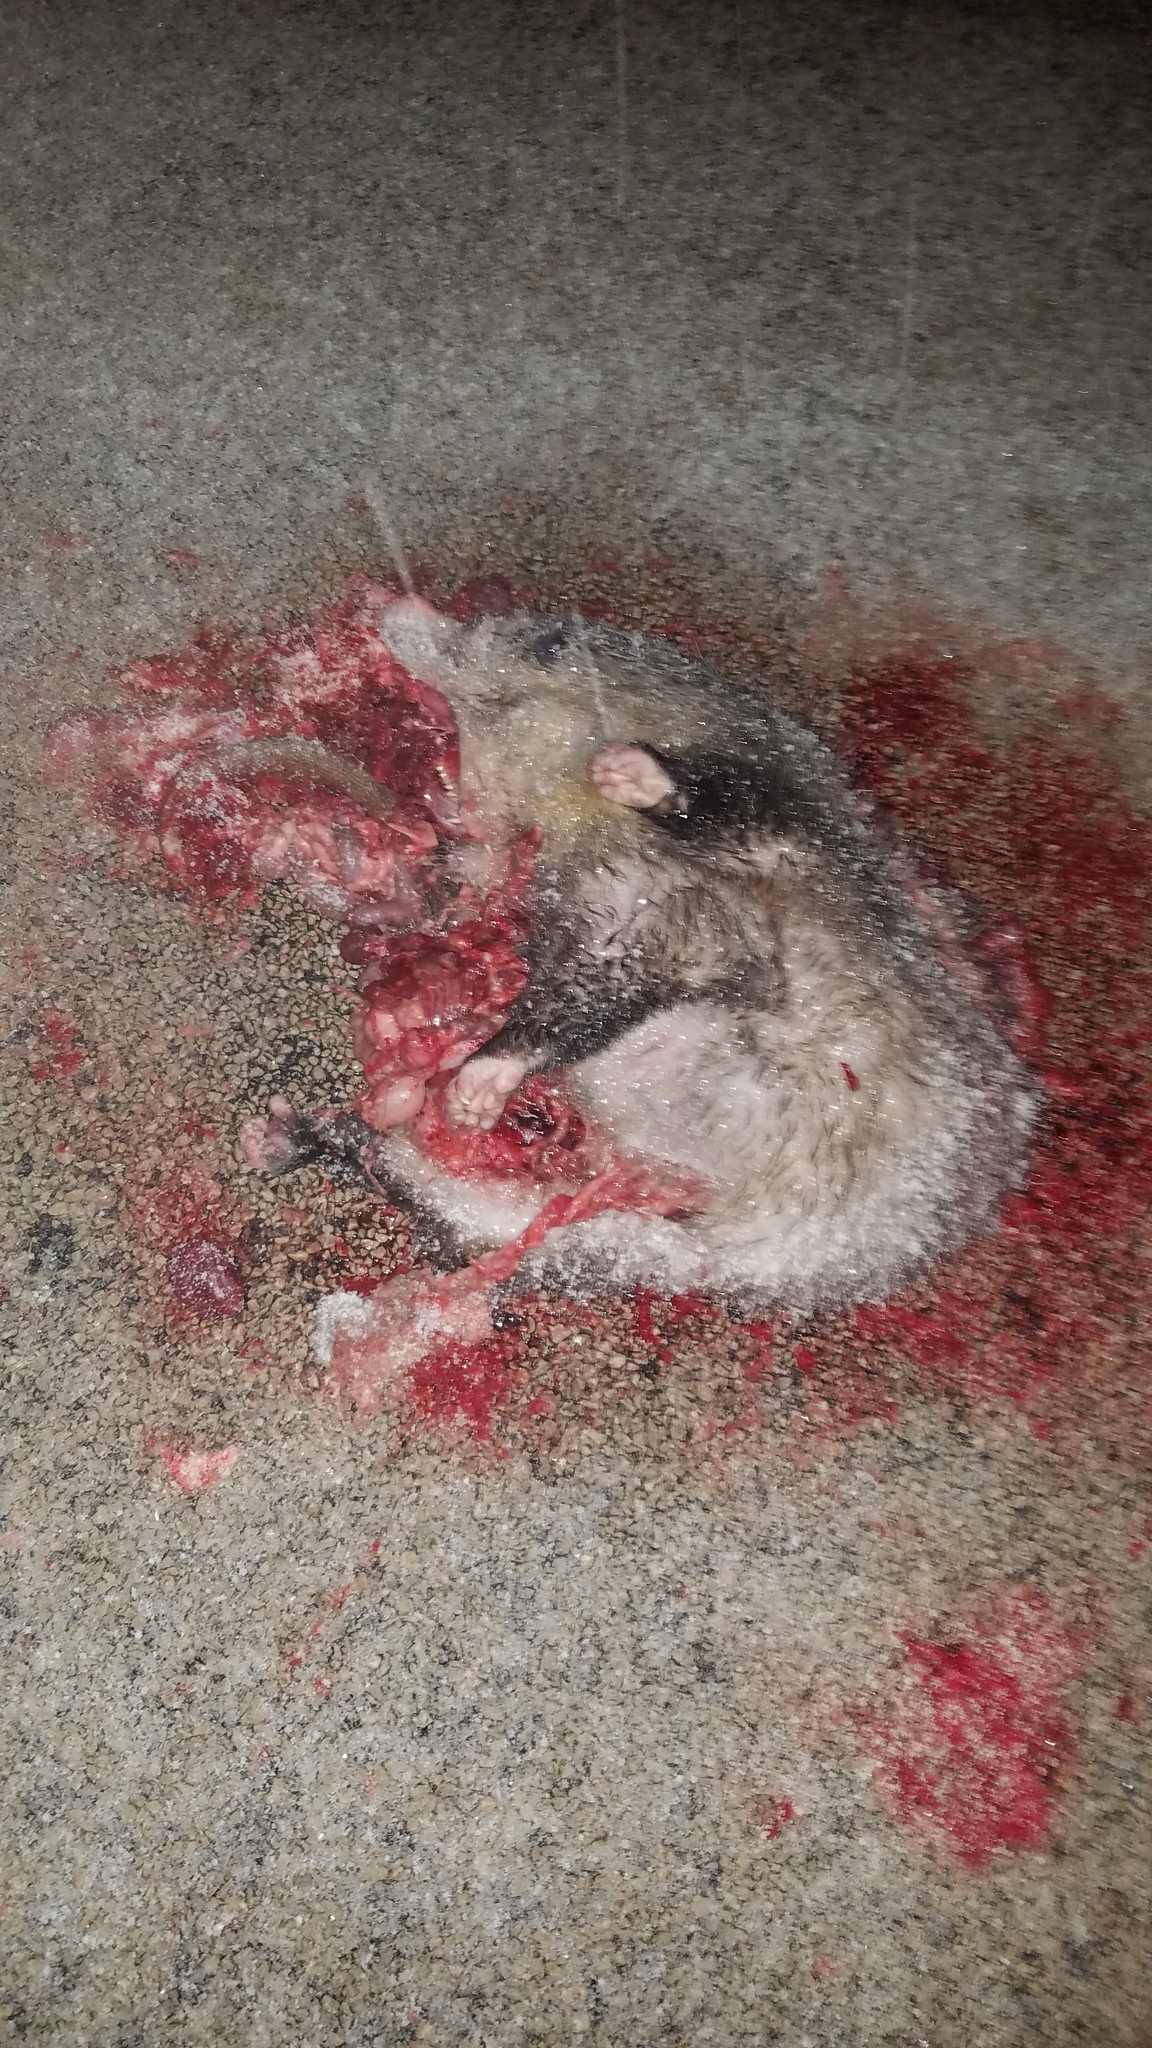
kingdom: Animalia
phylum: Chordata
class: Mammalia
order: Didelphimorphia
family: Didelphidae
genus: Didelphis
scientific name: Didelphis virginiana
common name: Virginia opossum
